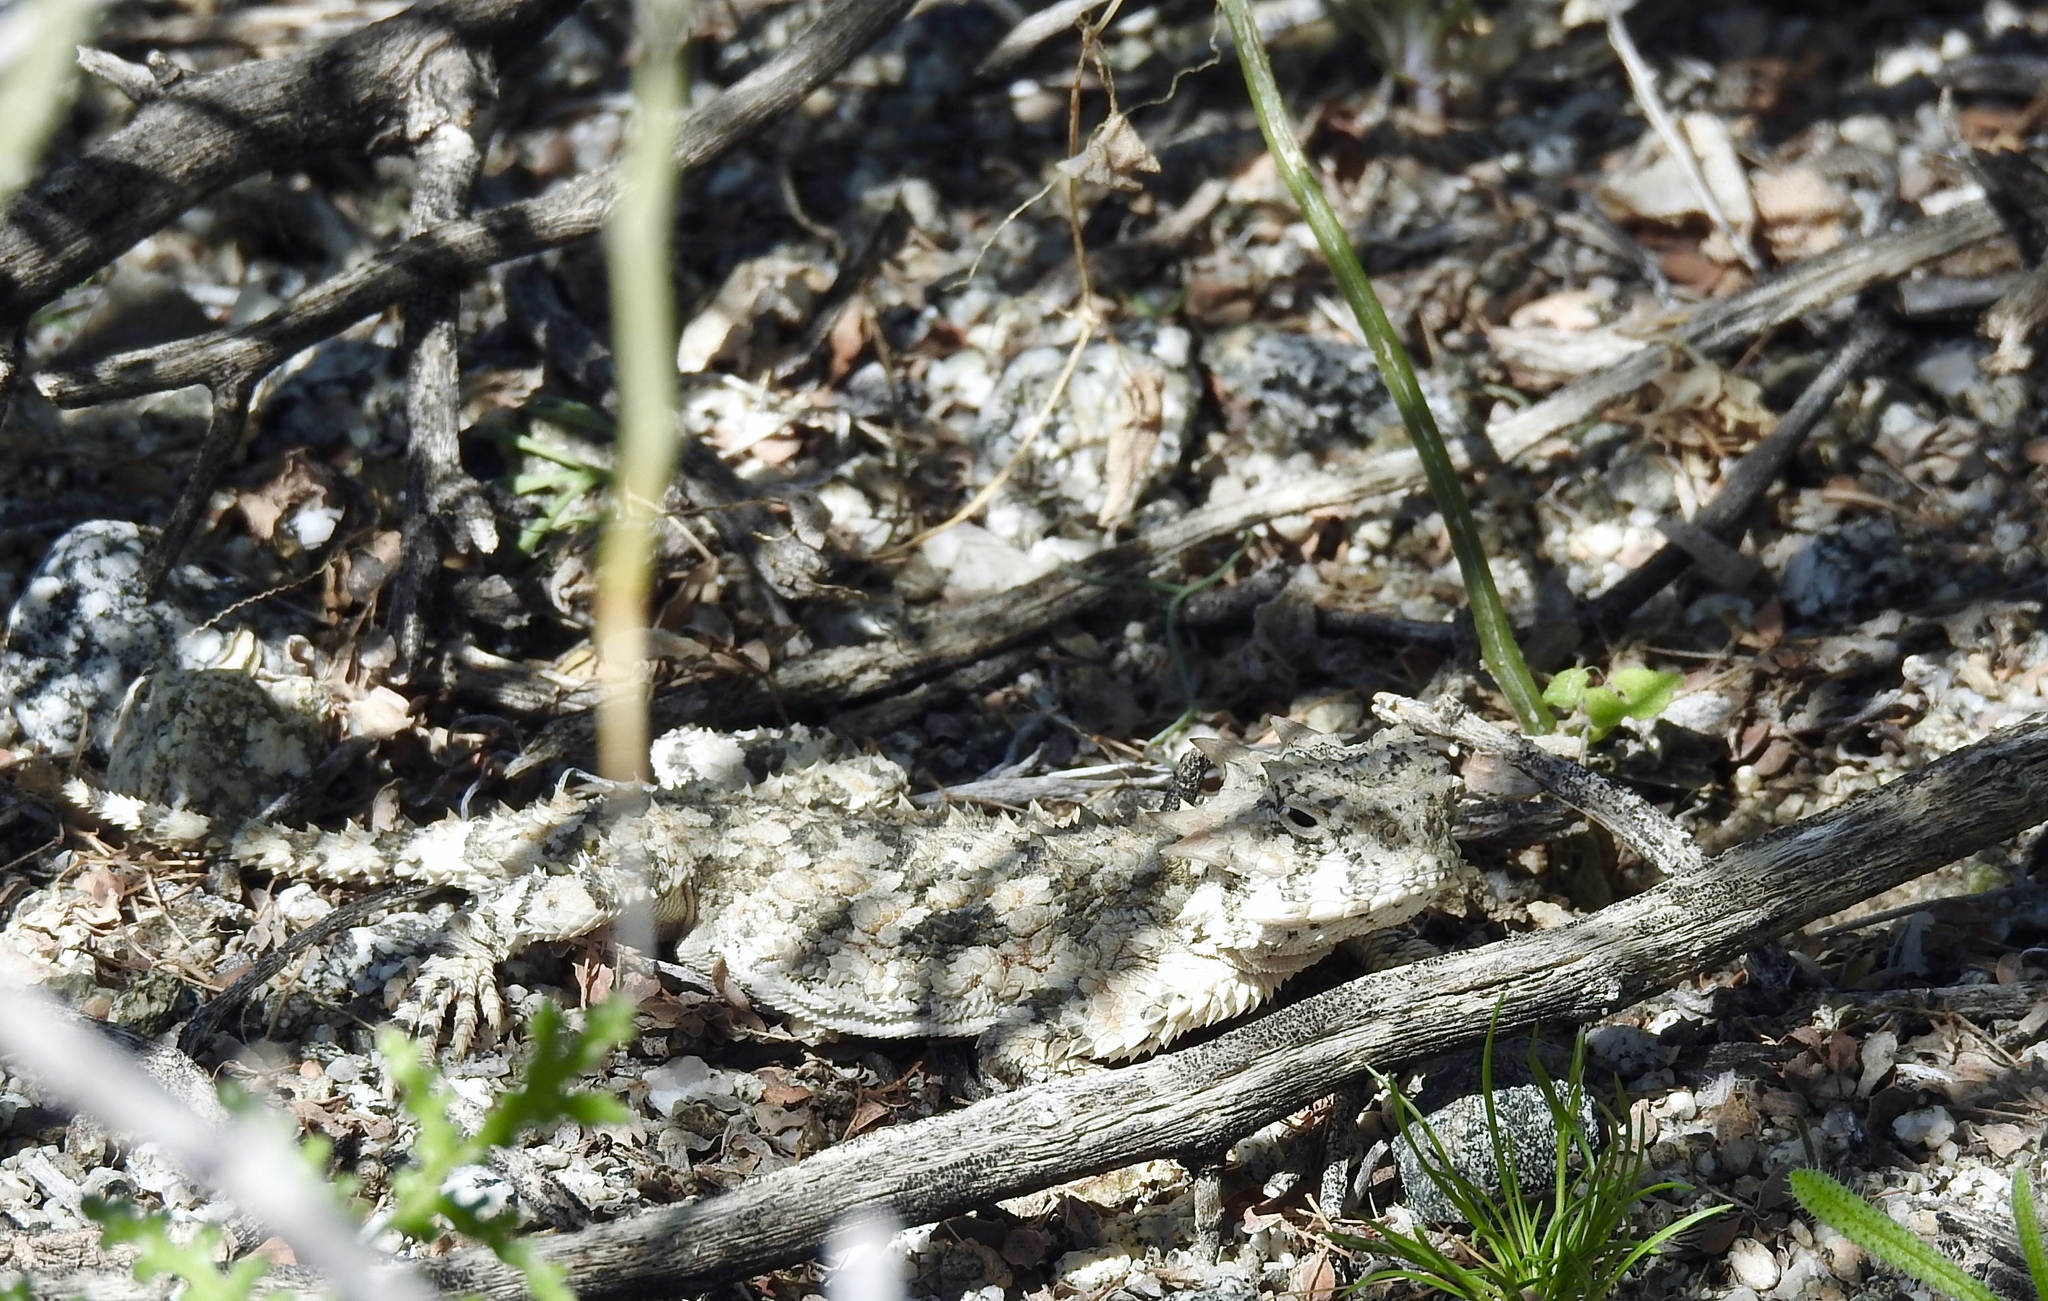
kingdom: Animalia
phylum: Chordata
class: Squamata
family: Phrynosomatidae
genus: Phrynosoma
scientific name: Phrynosoma platyrhinos
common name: Desert horned lizard
